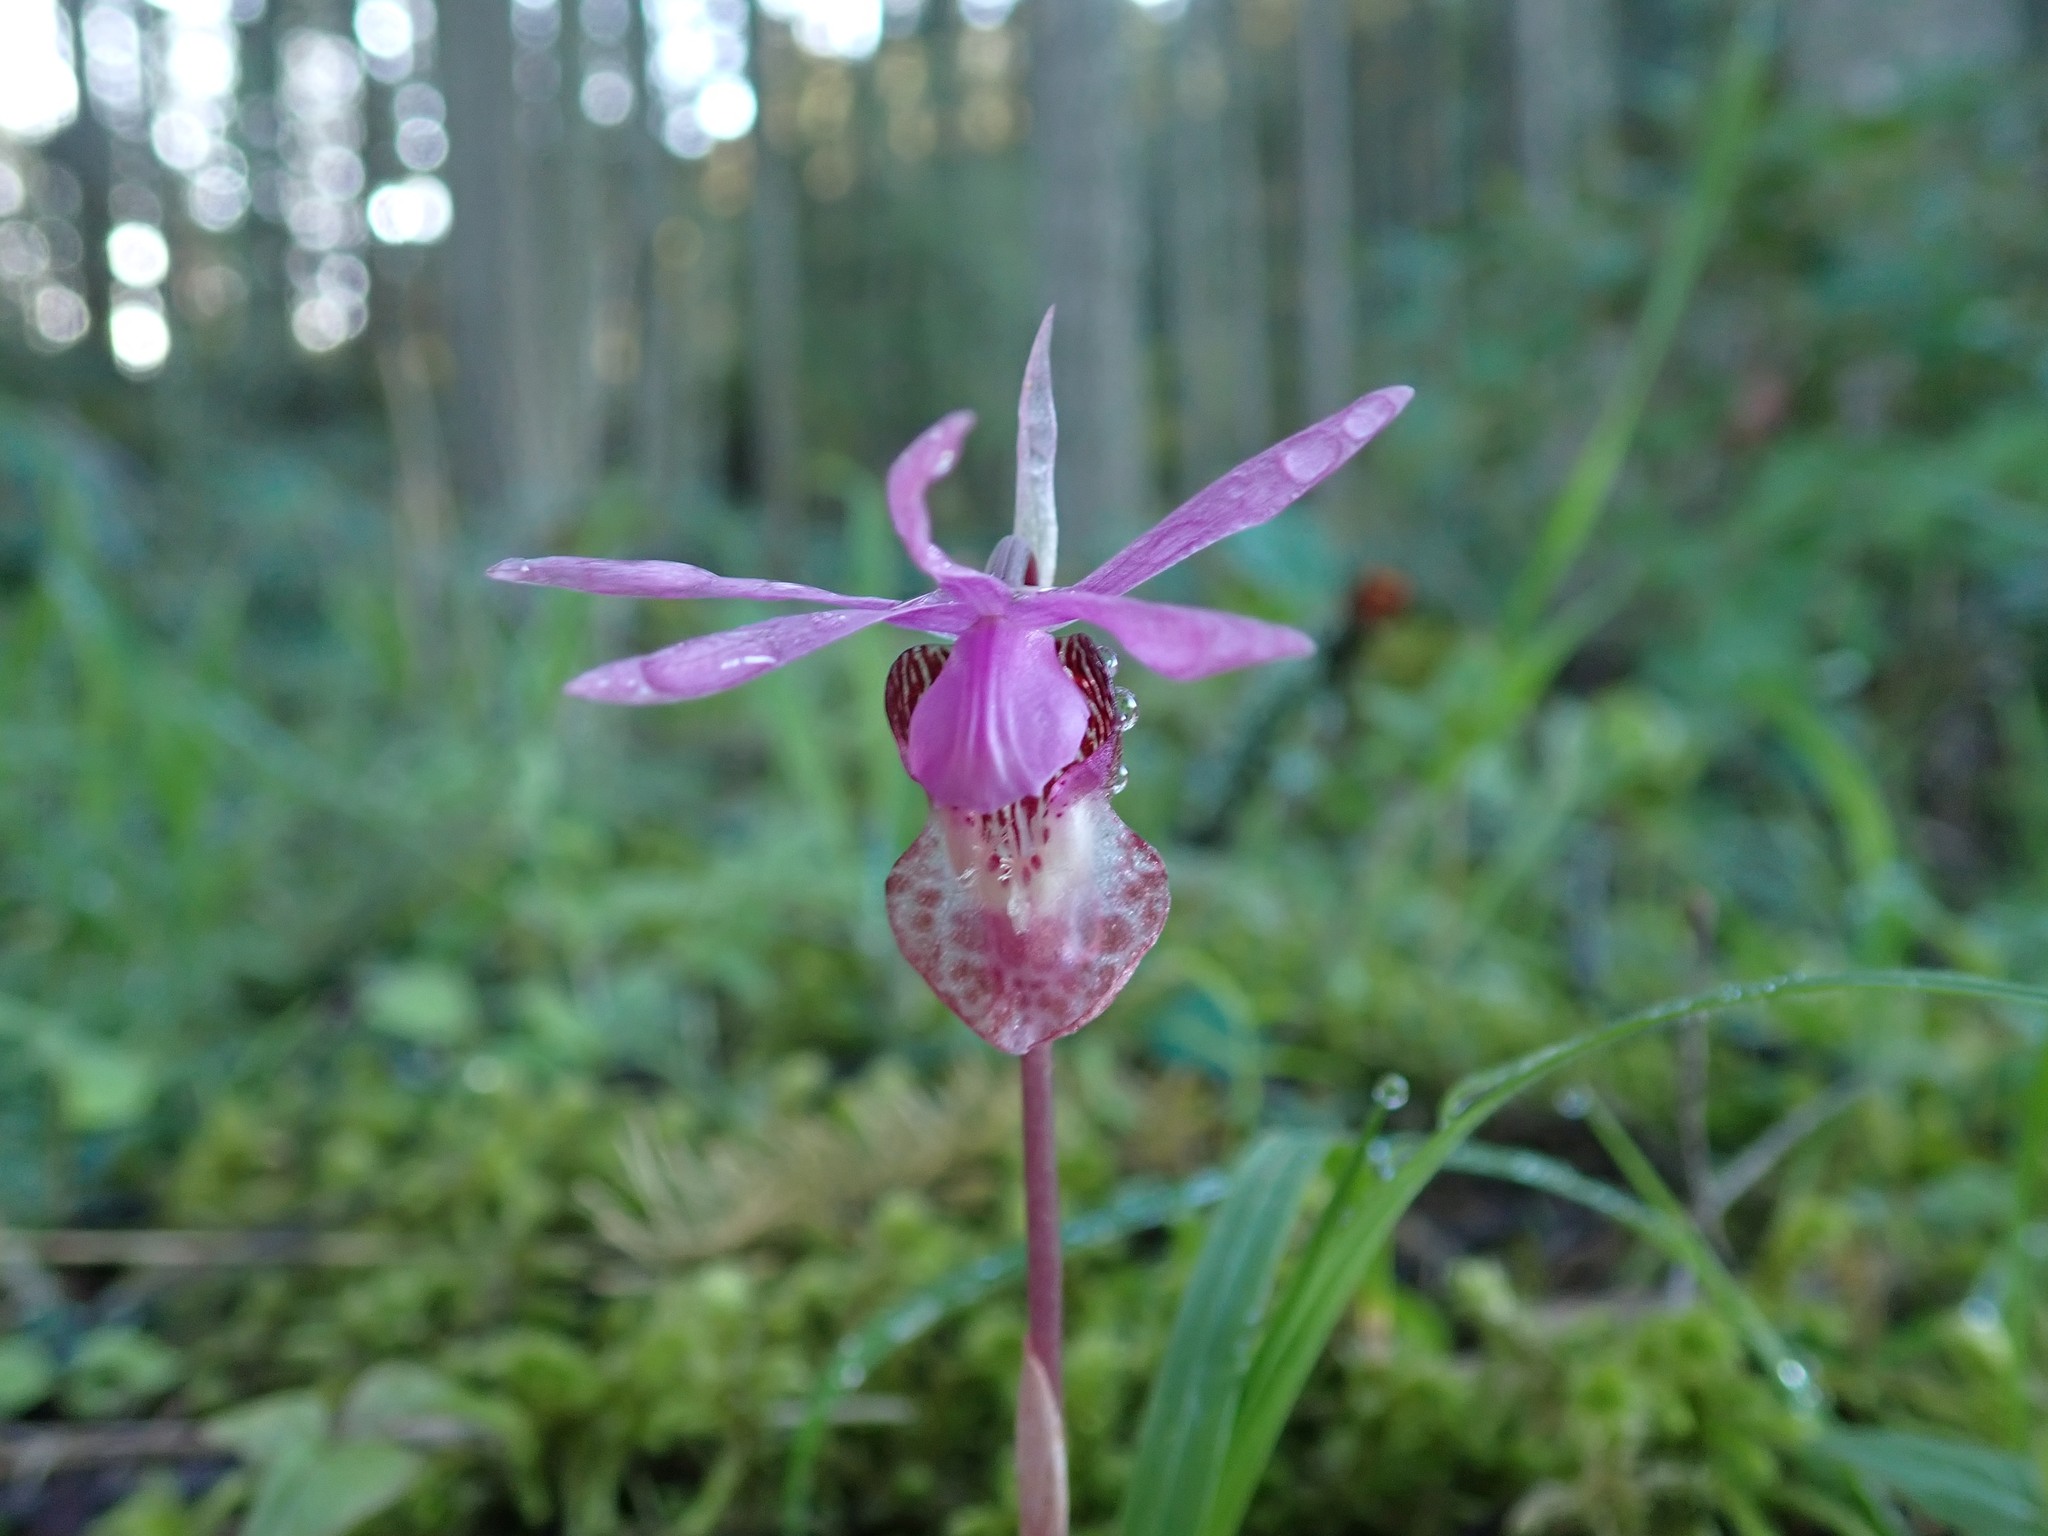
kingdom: Plantae
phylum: Tracheophyta
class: Liliopsida
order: Asparagales
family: Orchidaceae
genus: Calypso
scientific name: Calypso bulbosa
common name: Calypso
